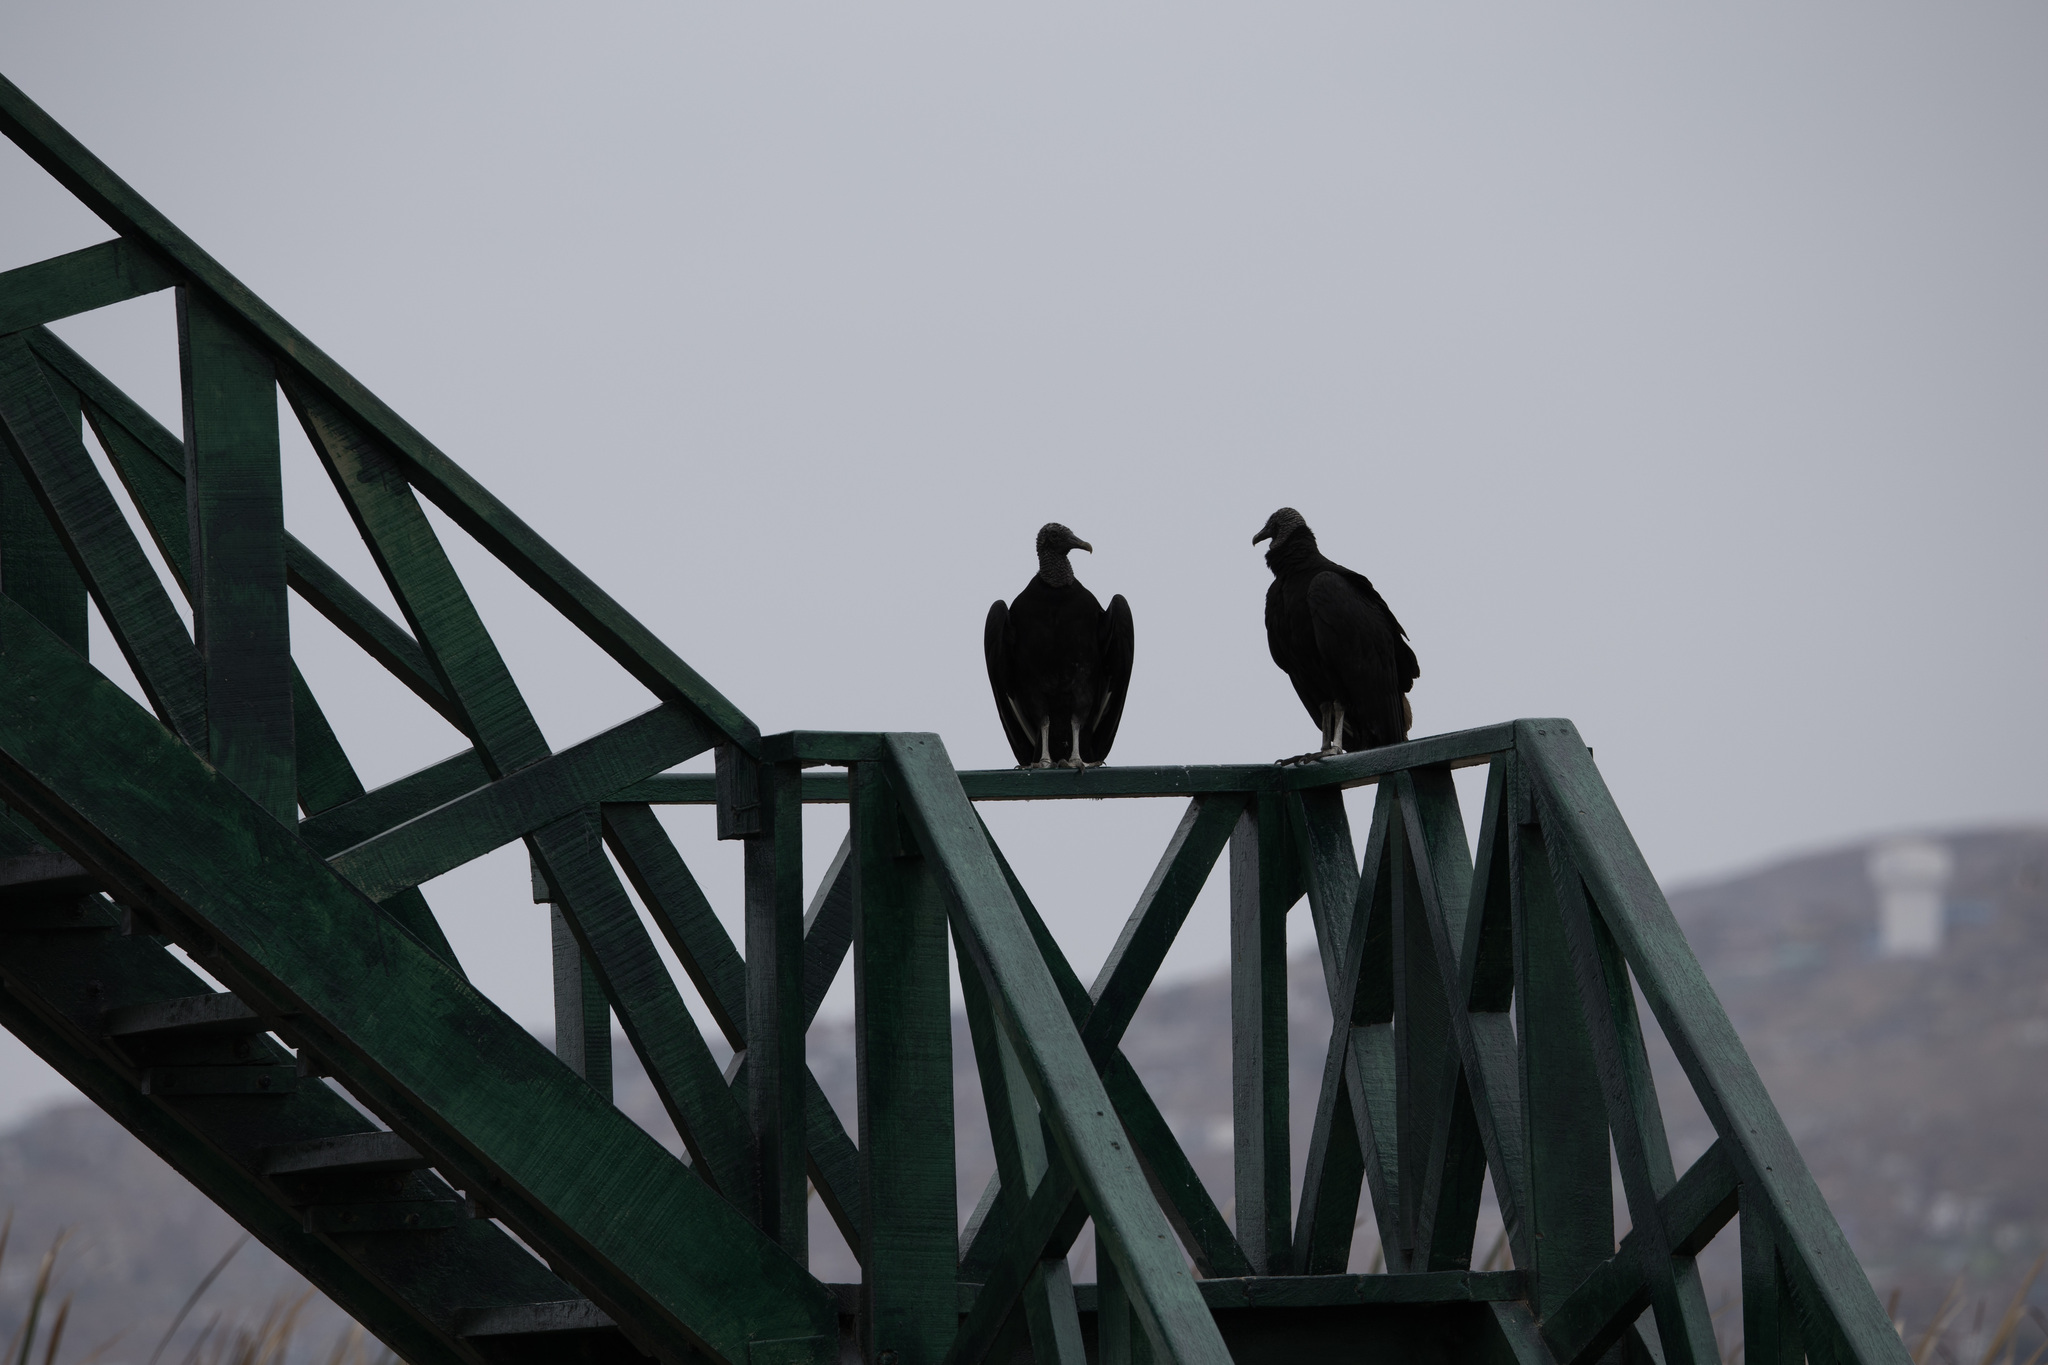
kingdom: Animalia
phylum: Chordata
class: Aves
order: Accipitriformes
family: Cathartidae
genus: Coragyps
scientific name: Coragyps atratus
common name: Black vulture
